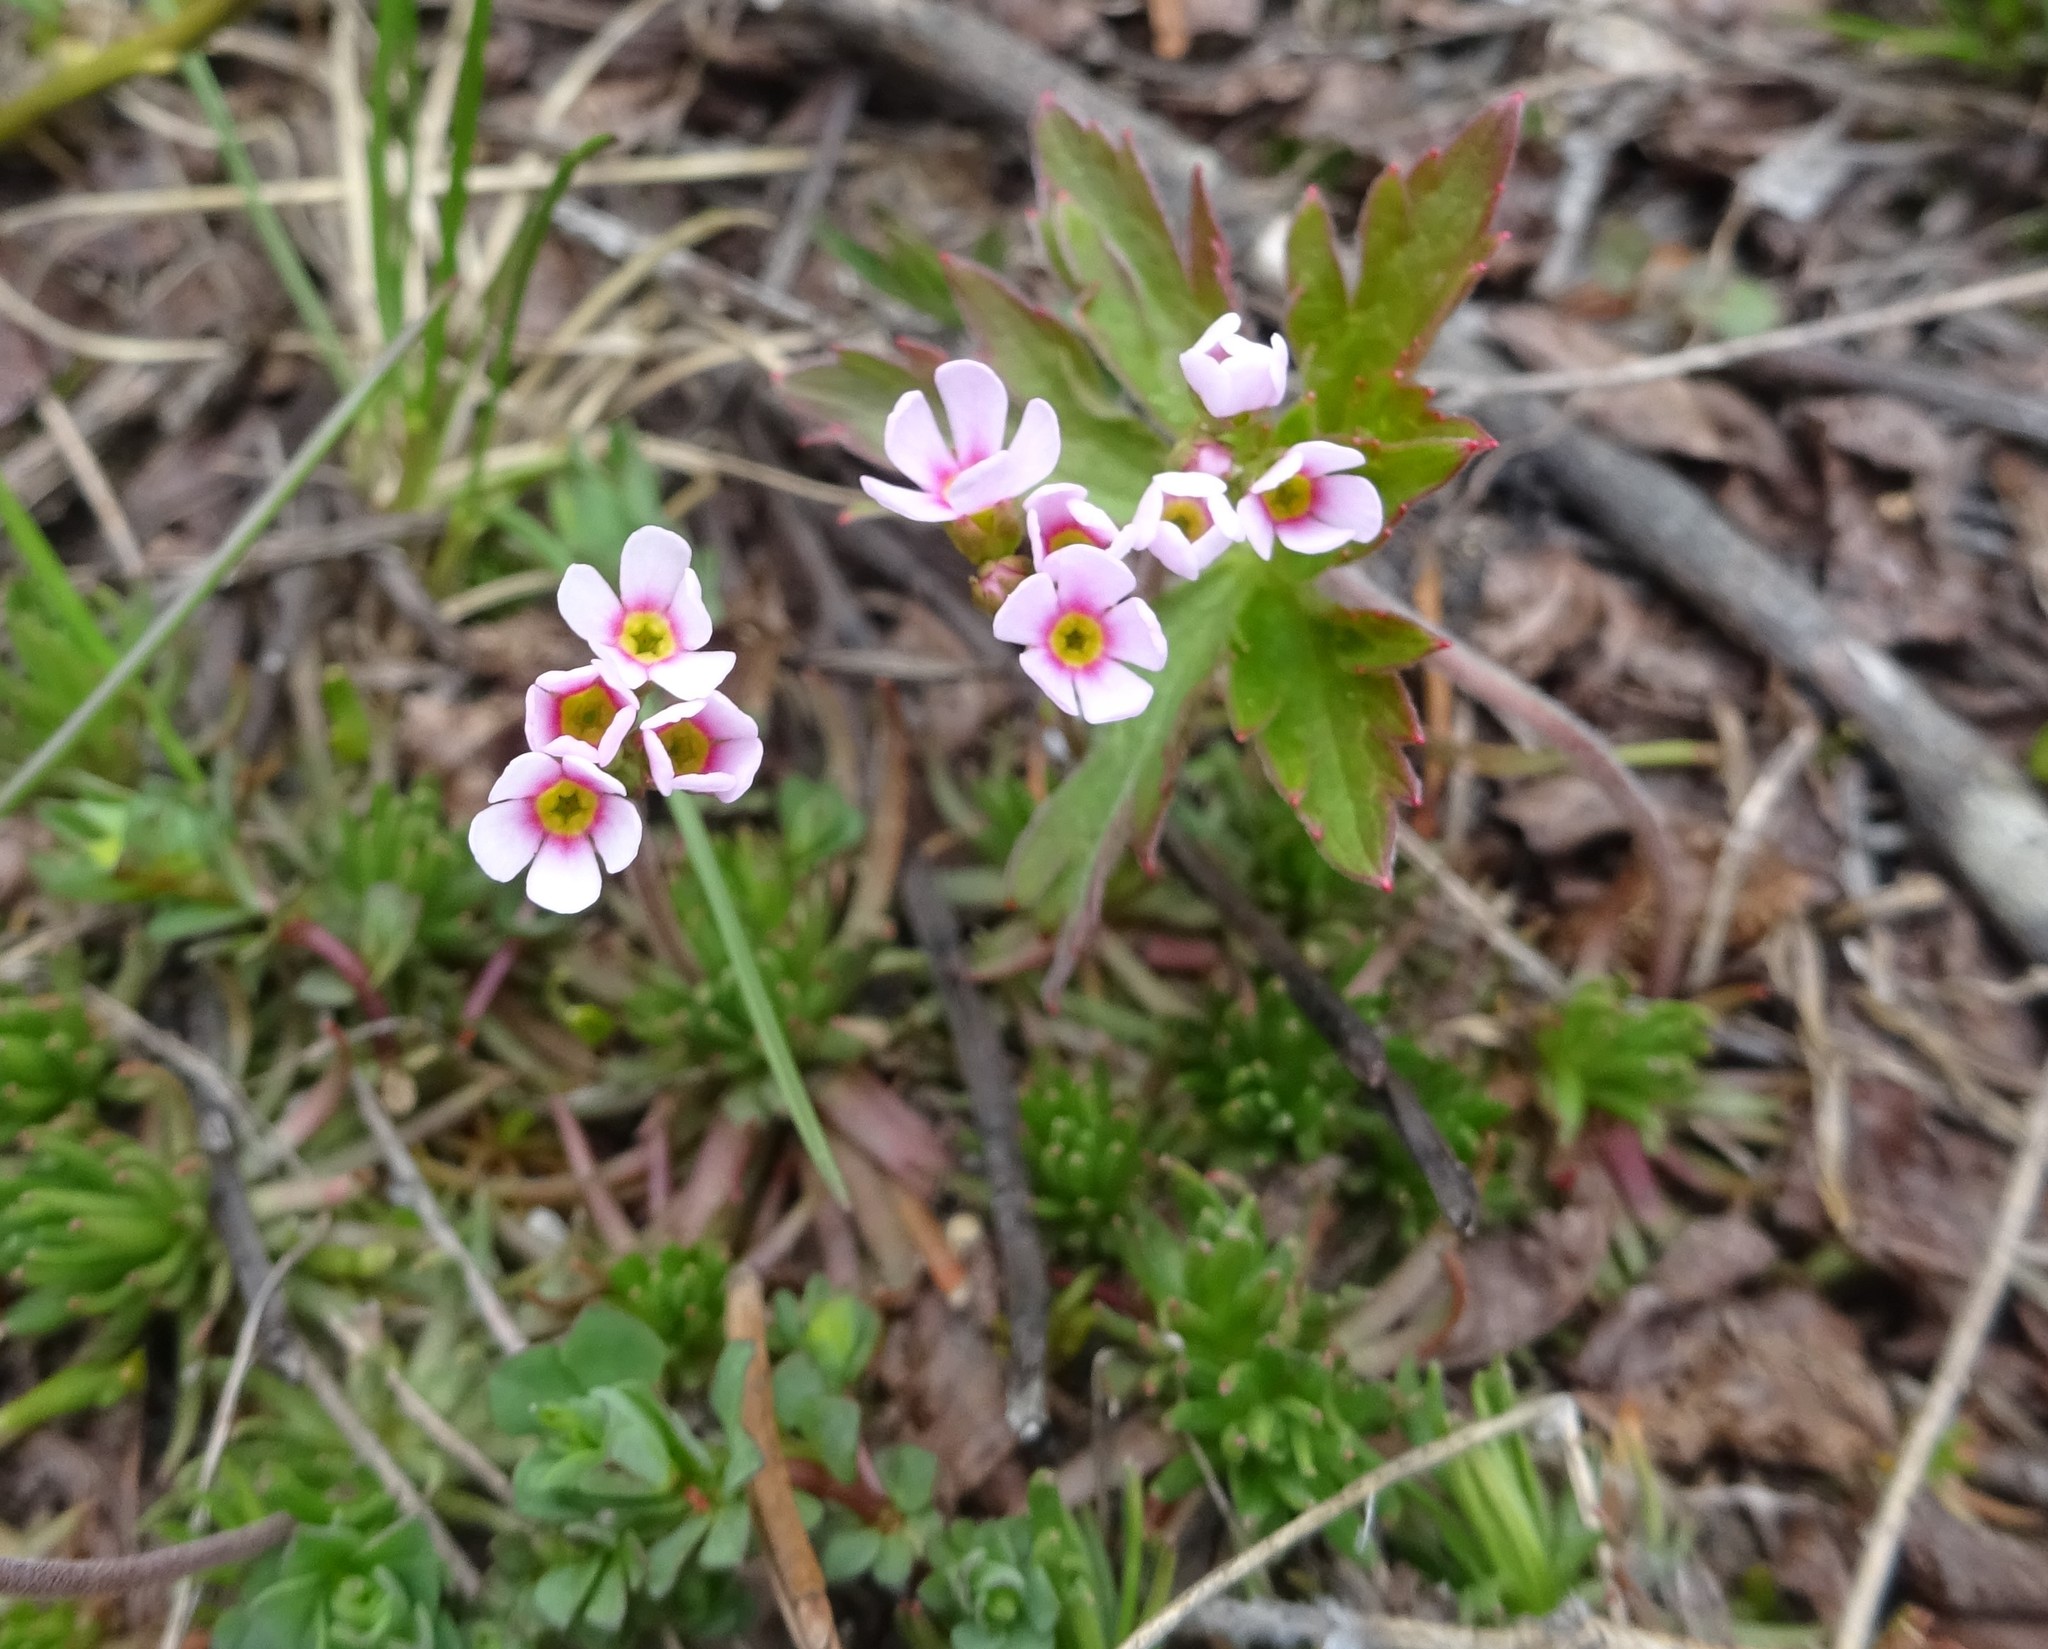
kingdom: Plantae
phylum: Tracheophyta
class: Magnoliopsida
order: Ericales
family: Primulaceae
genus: Androsace
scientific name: Androsace adfinis
